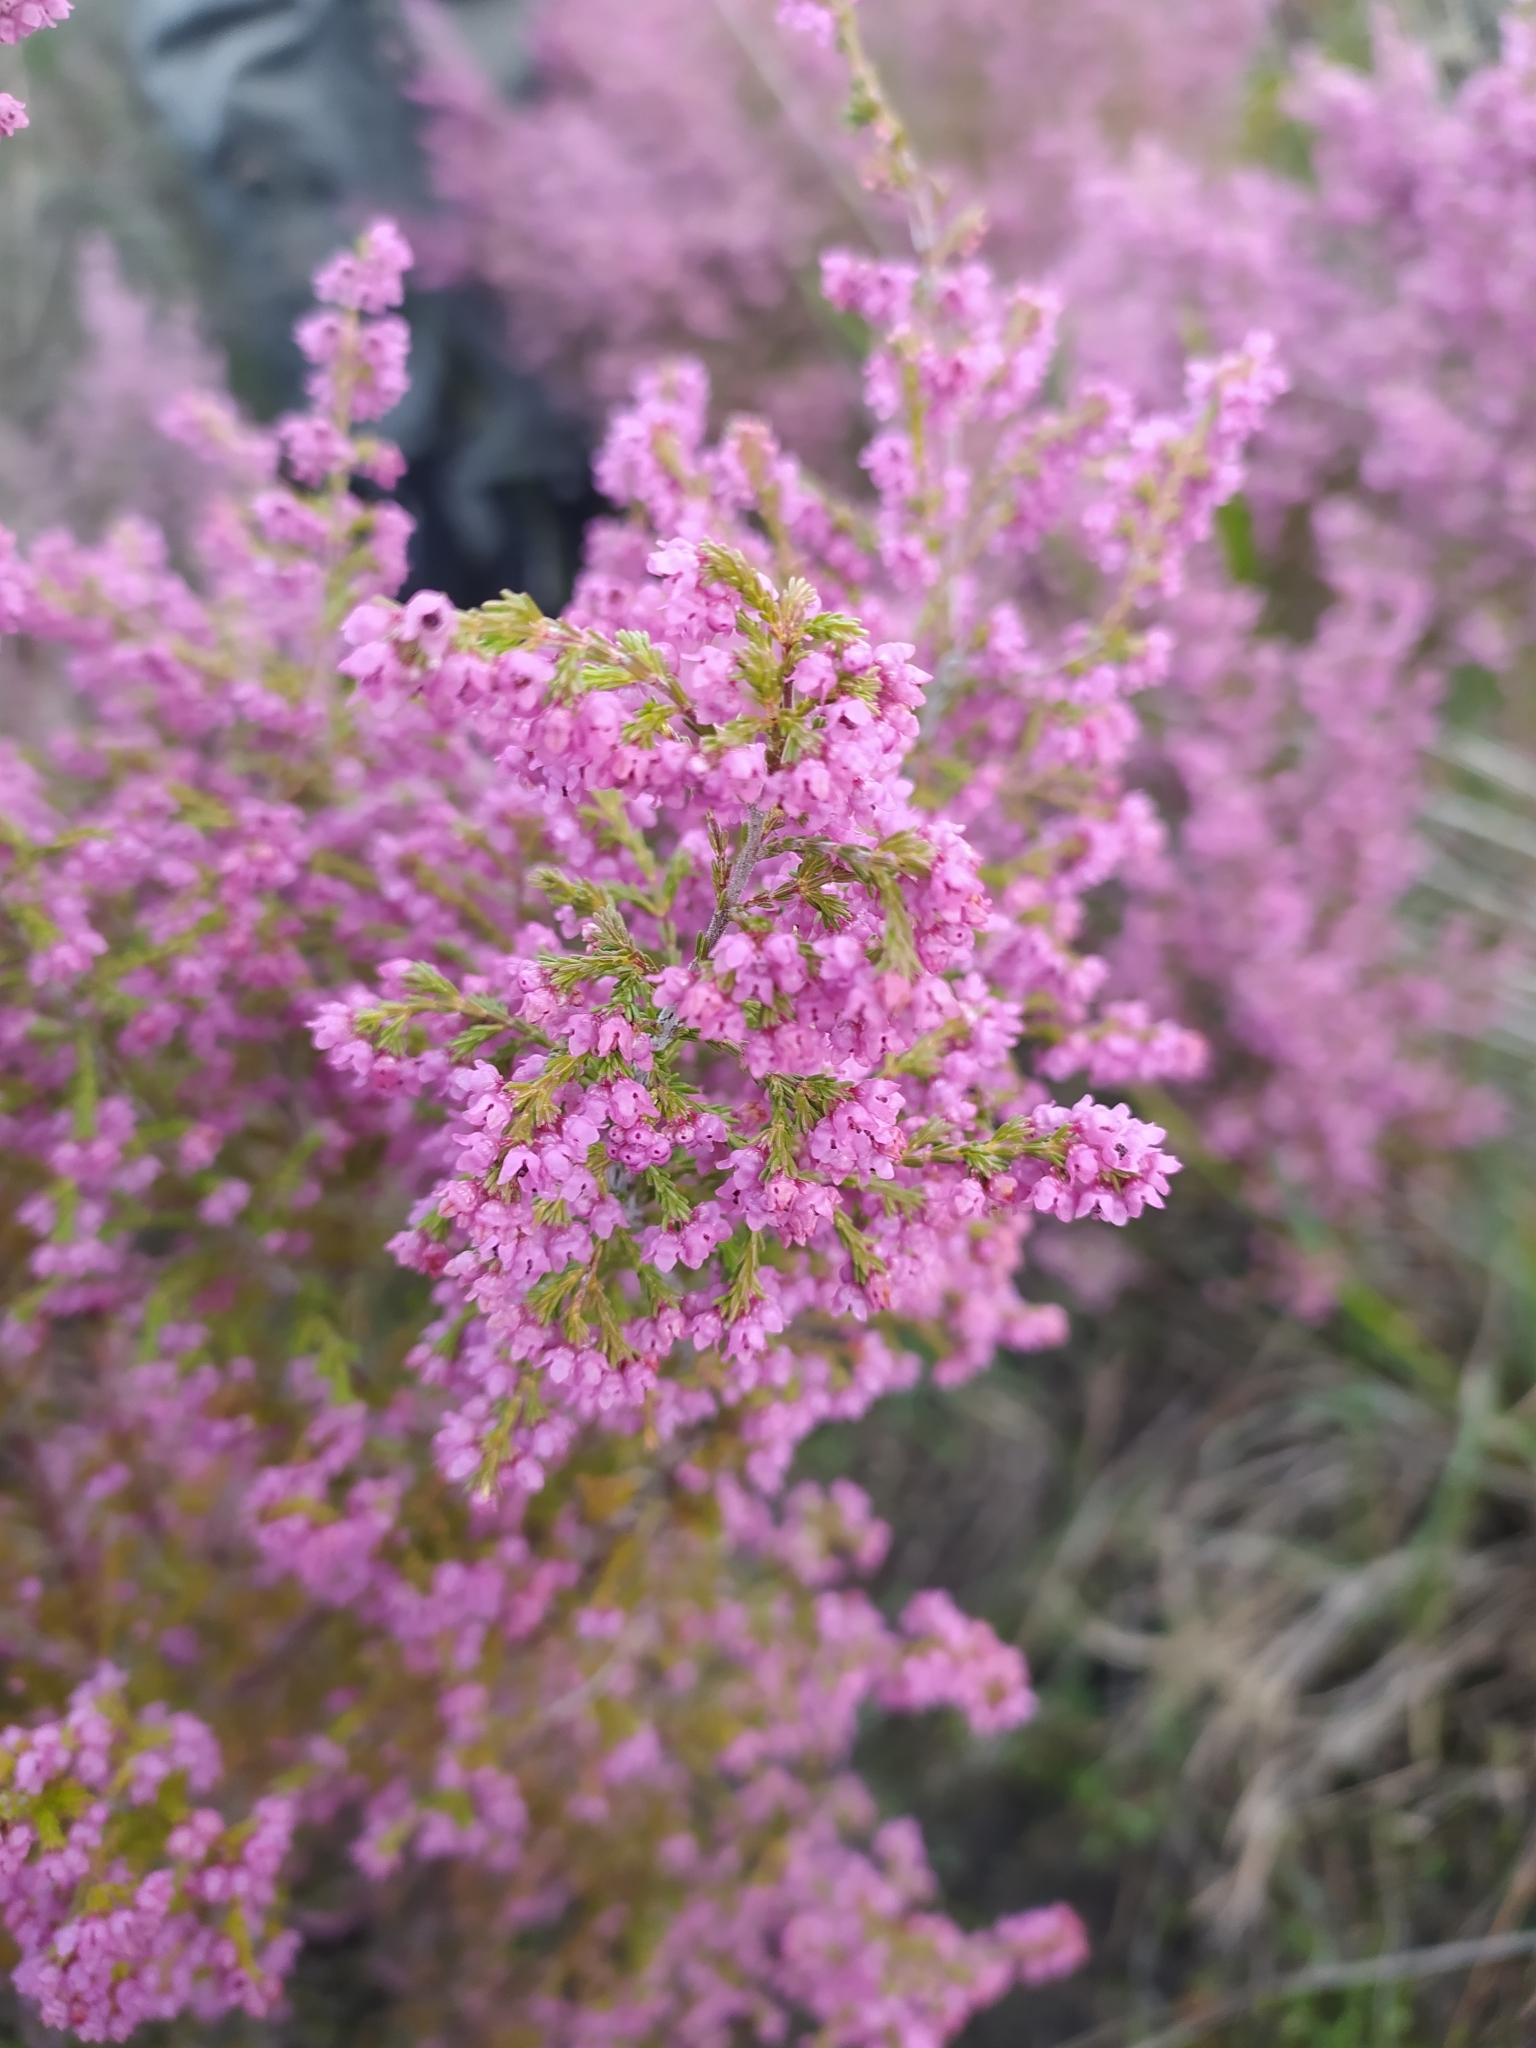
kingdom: Plantae
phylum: Tracheophyta
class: Magnoliopsida
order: Ericales
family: Ericaceae
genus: Erica
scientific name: Erica mauritanica
